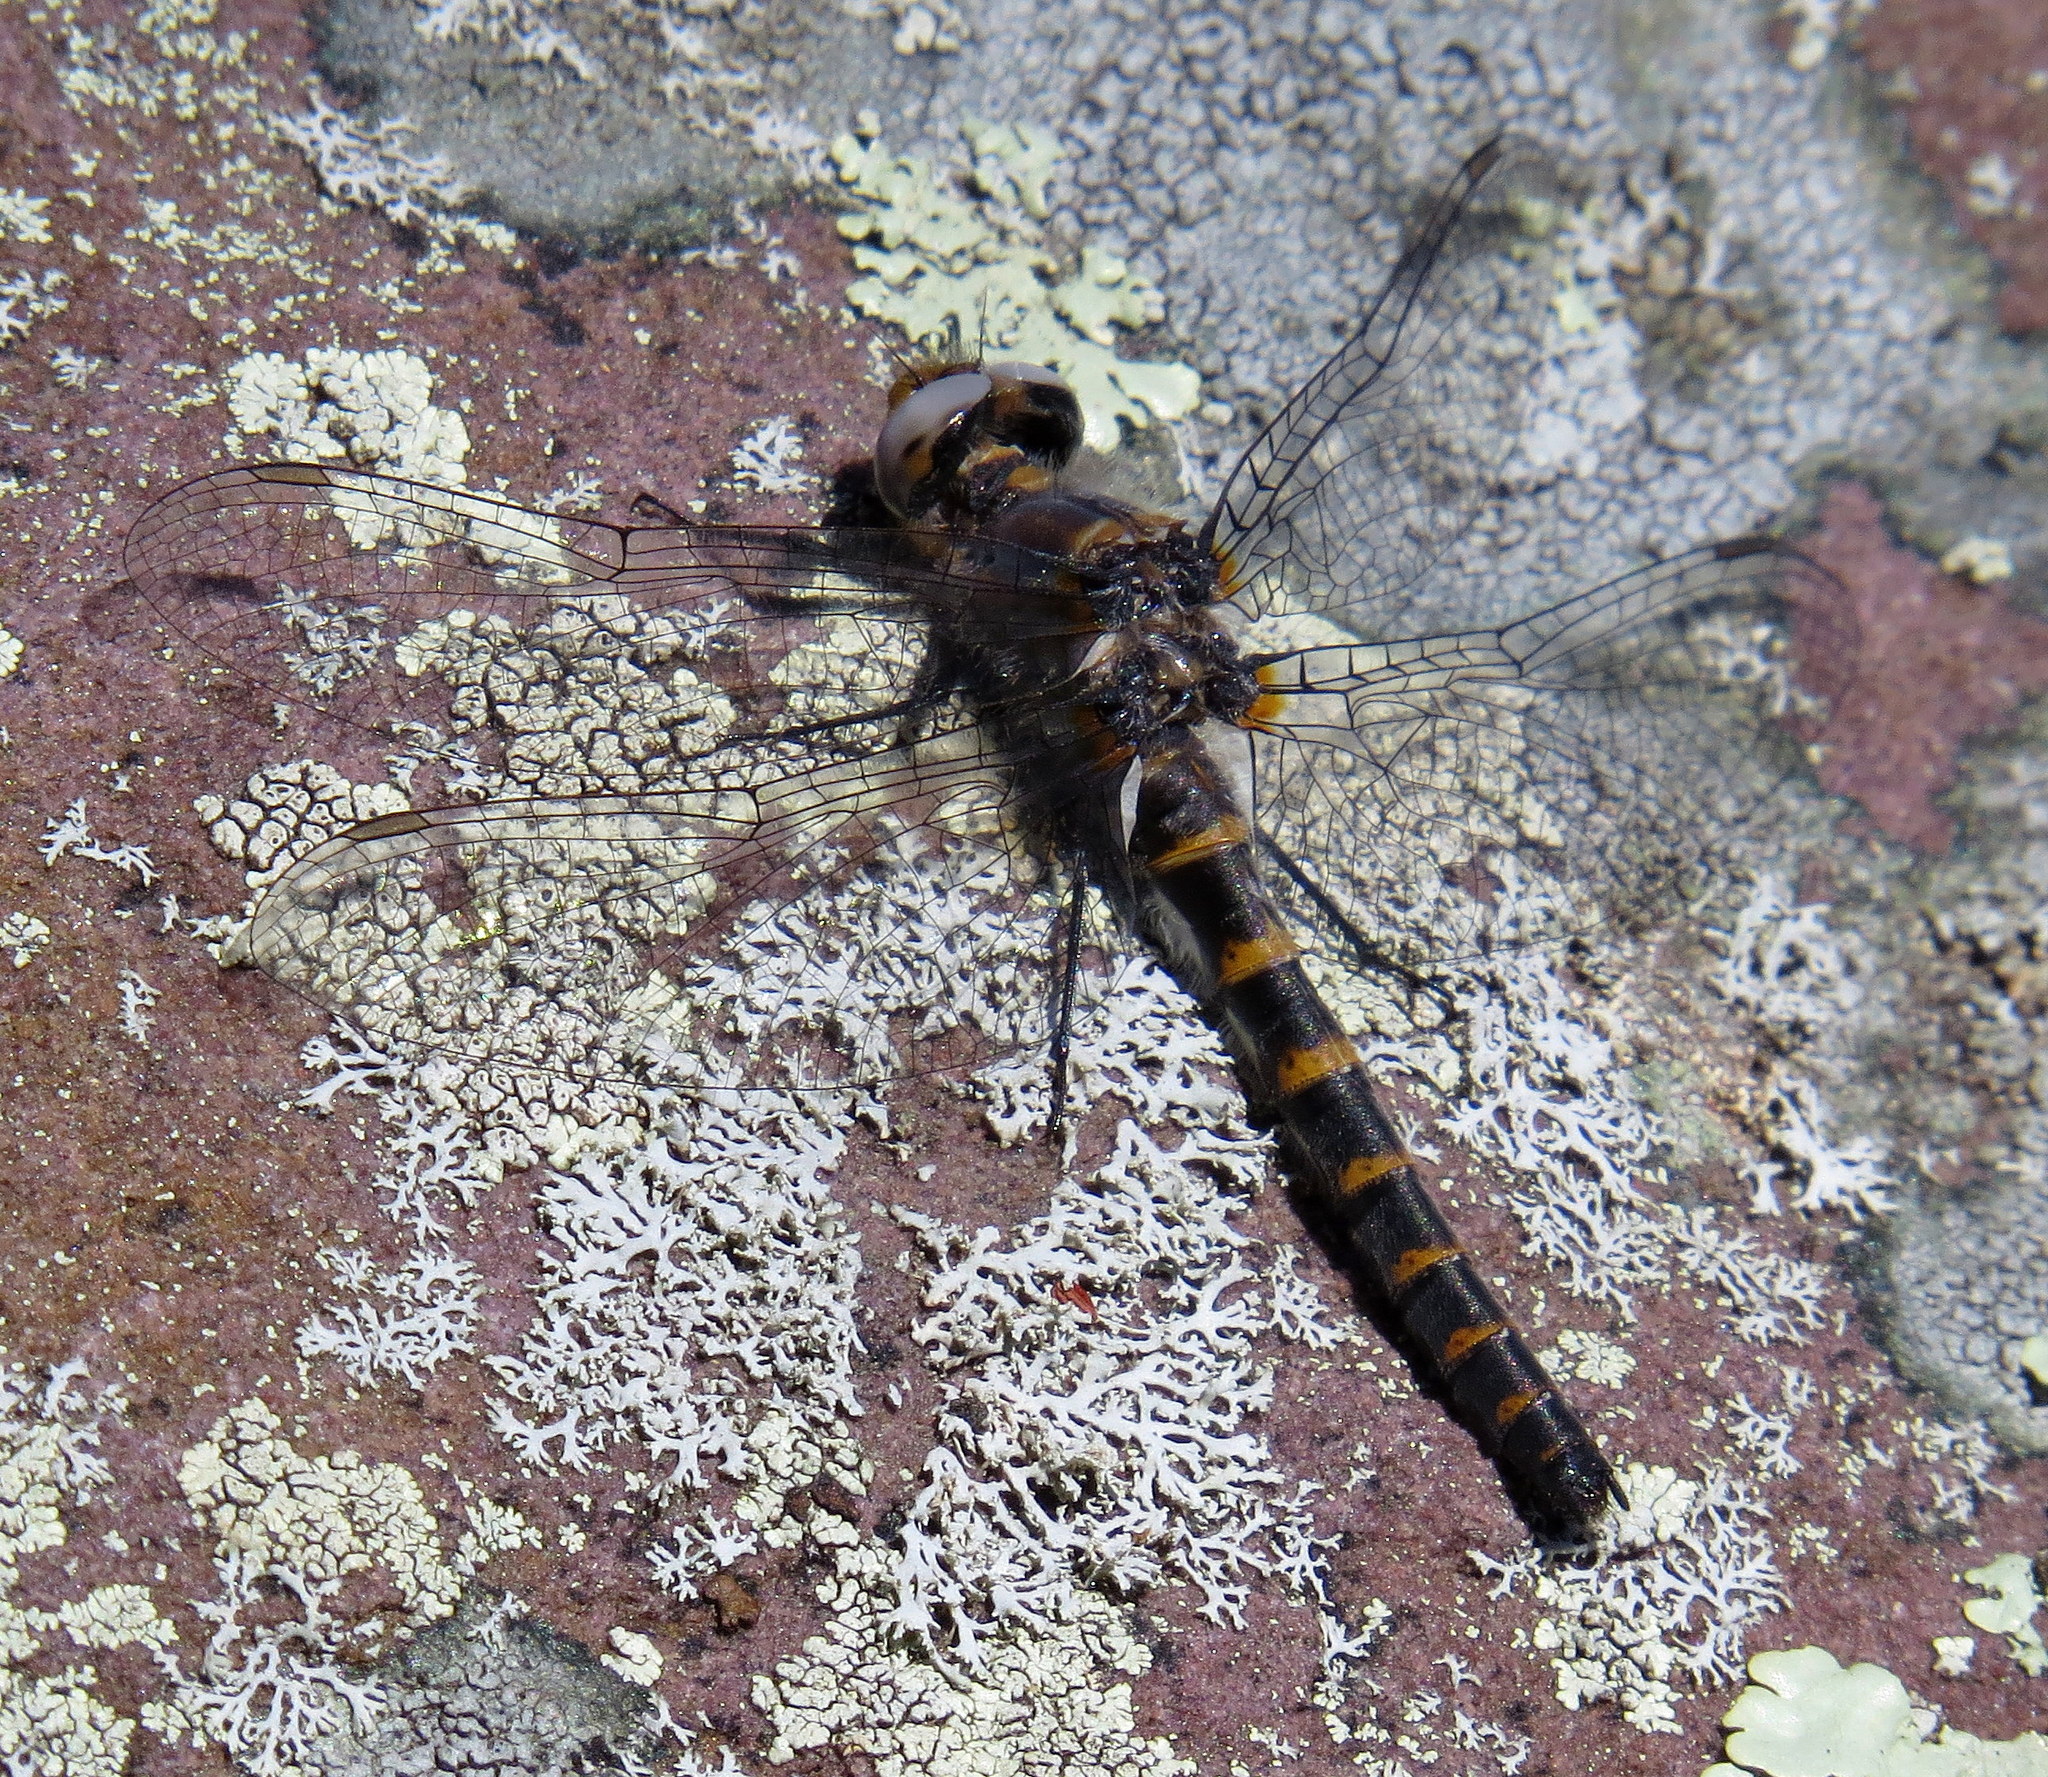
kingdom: Animalia
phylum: Arthropoda
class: Insecta
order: Odonata
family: Corduliidae
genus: Williamsonia
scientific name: Williamsonia lintneri
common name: Ringed boghaunter
